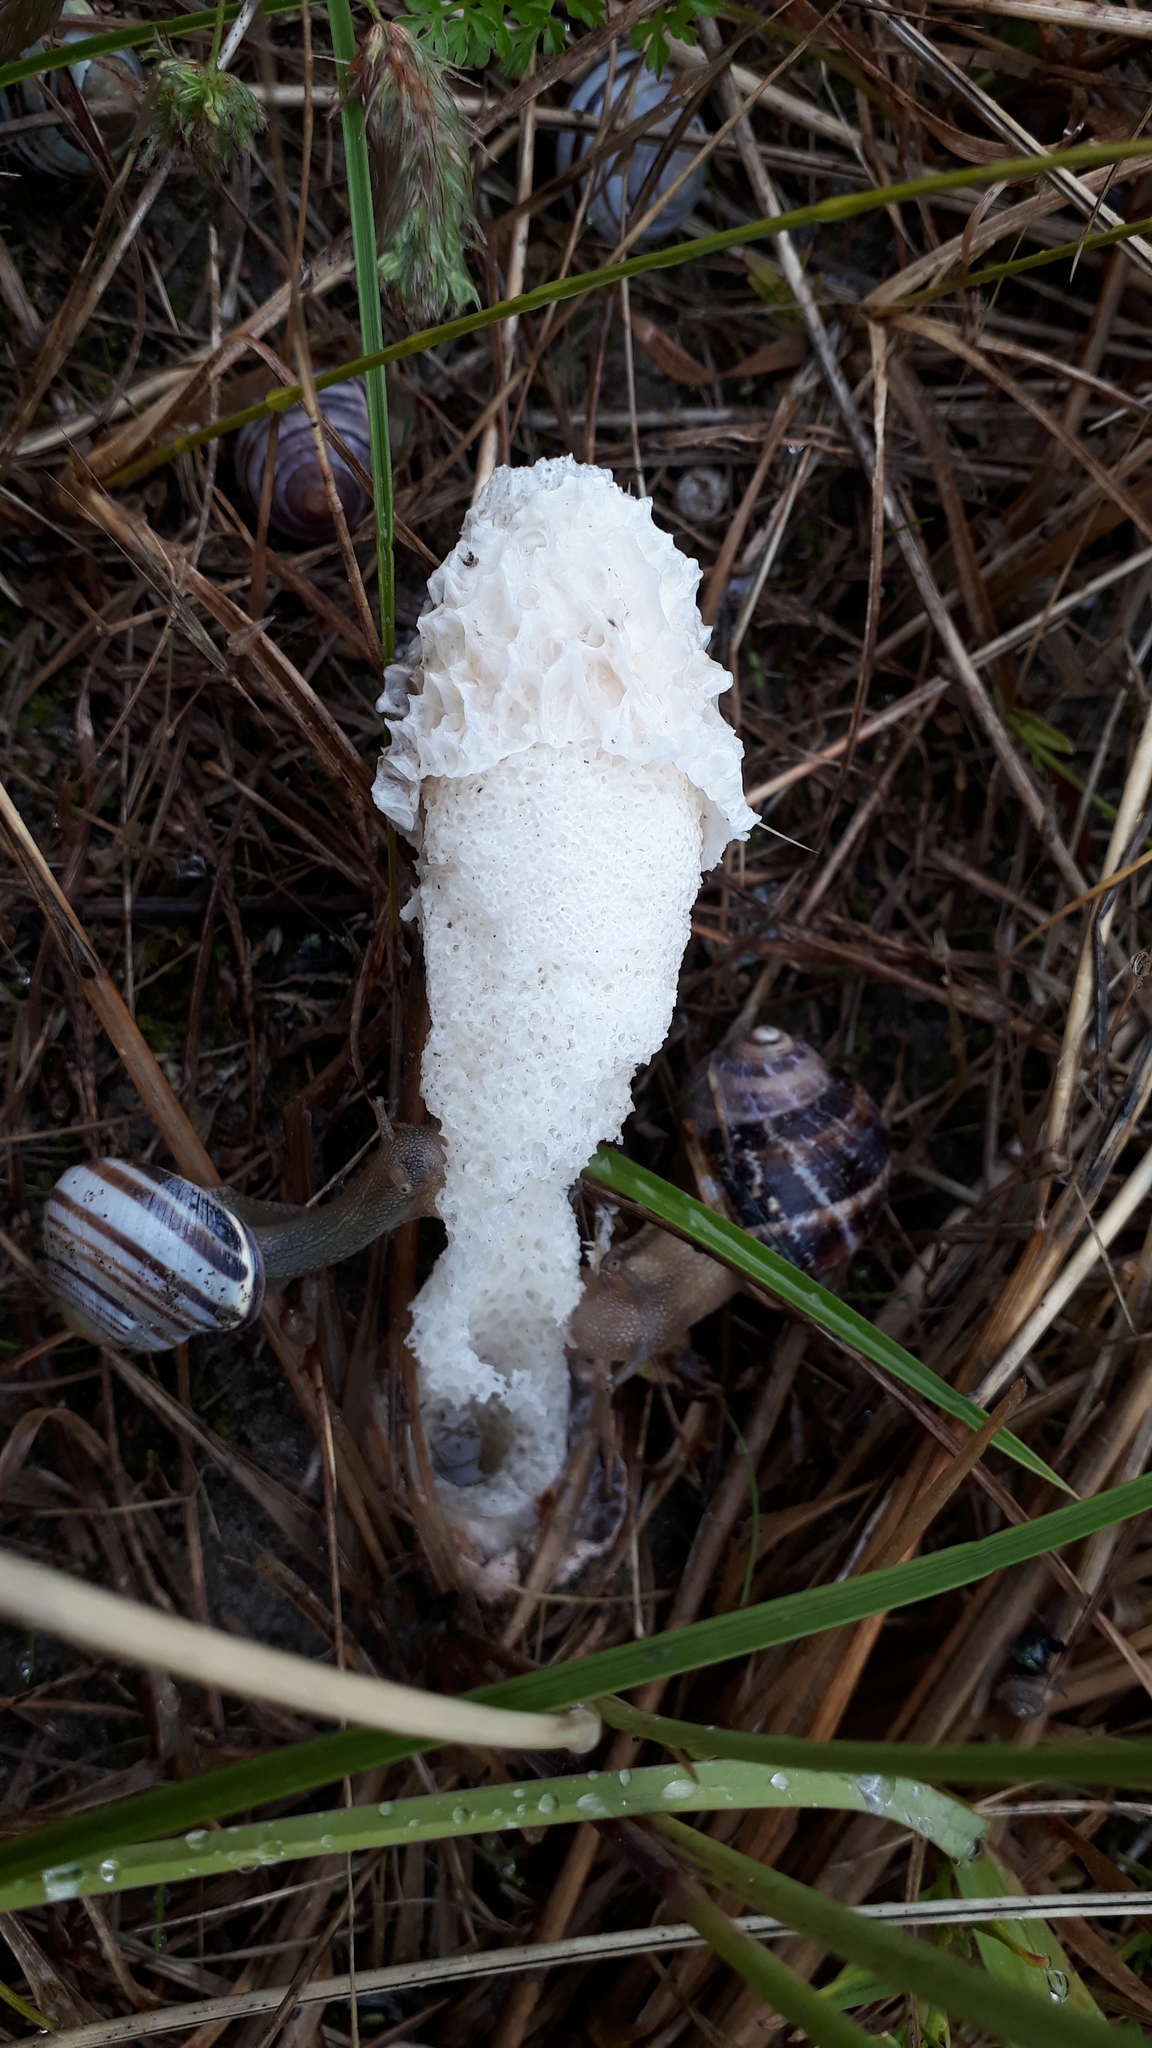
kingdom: Fungi
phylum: Basidiomycota
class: Agaricomycetes
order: Phallales
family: Phallaceae
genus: Phallus
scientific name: Phallus impudicus
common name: Common stinkhorn
